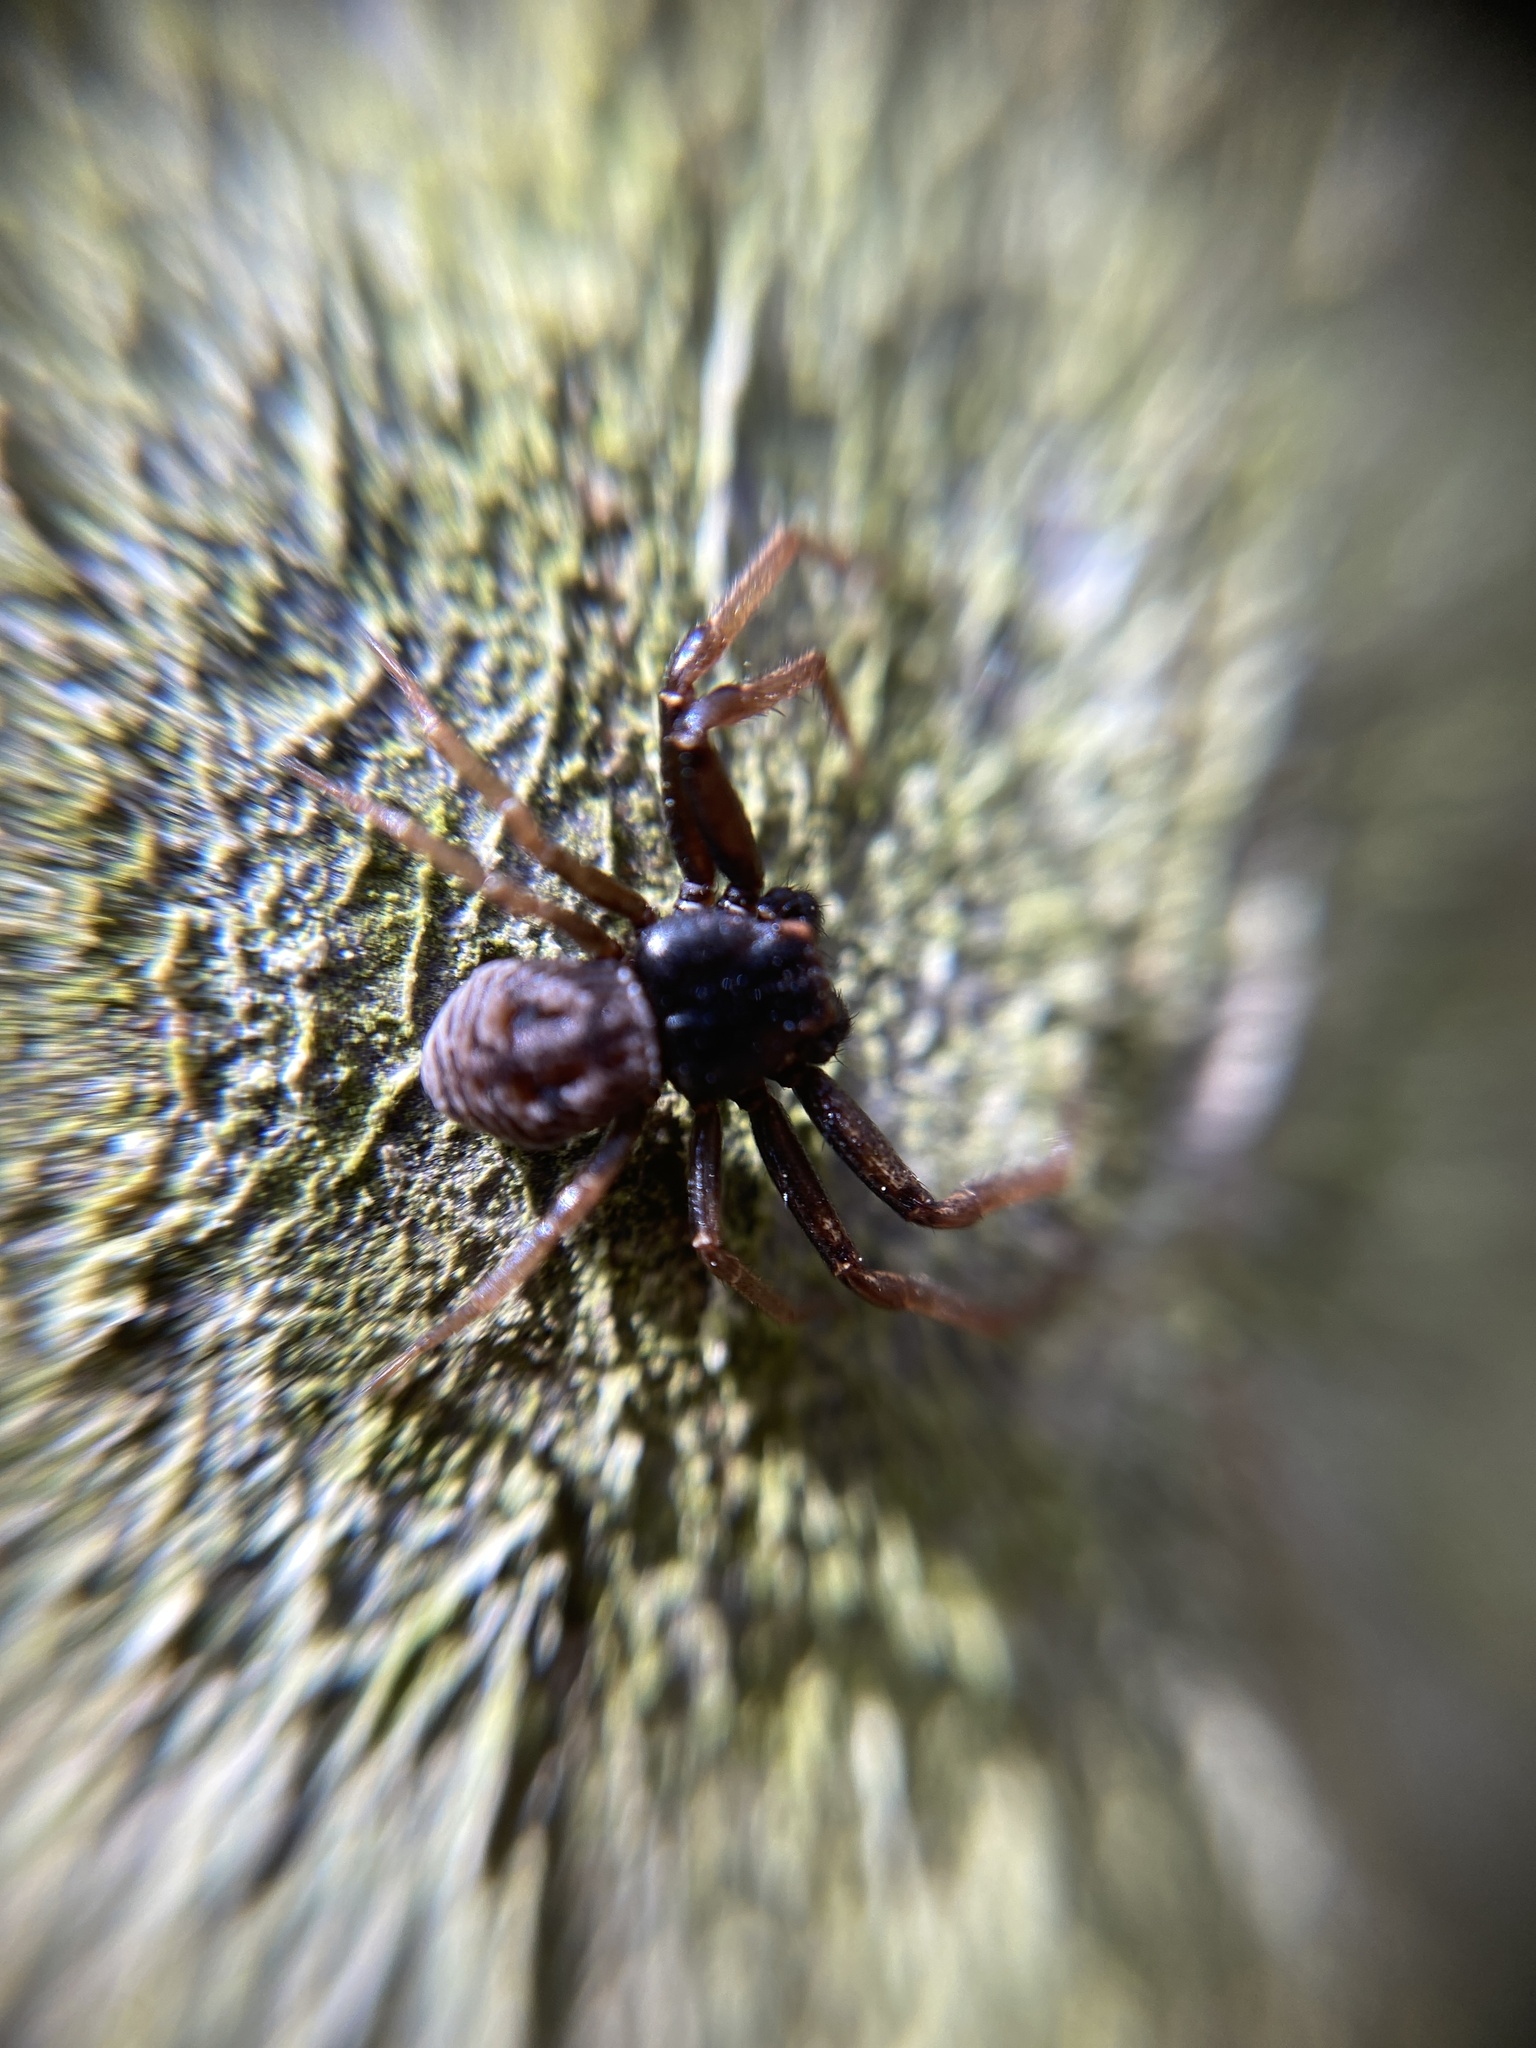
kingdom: Animalia
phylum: Arthropoda
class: Arachnida
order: Araneae
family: Thomisidae
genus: Coriarachne
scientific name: Coriarachne depressa
